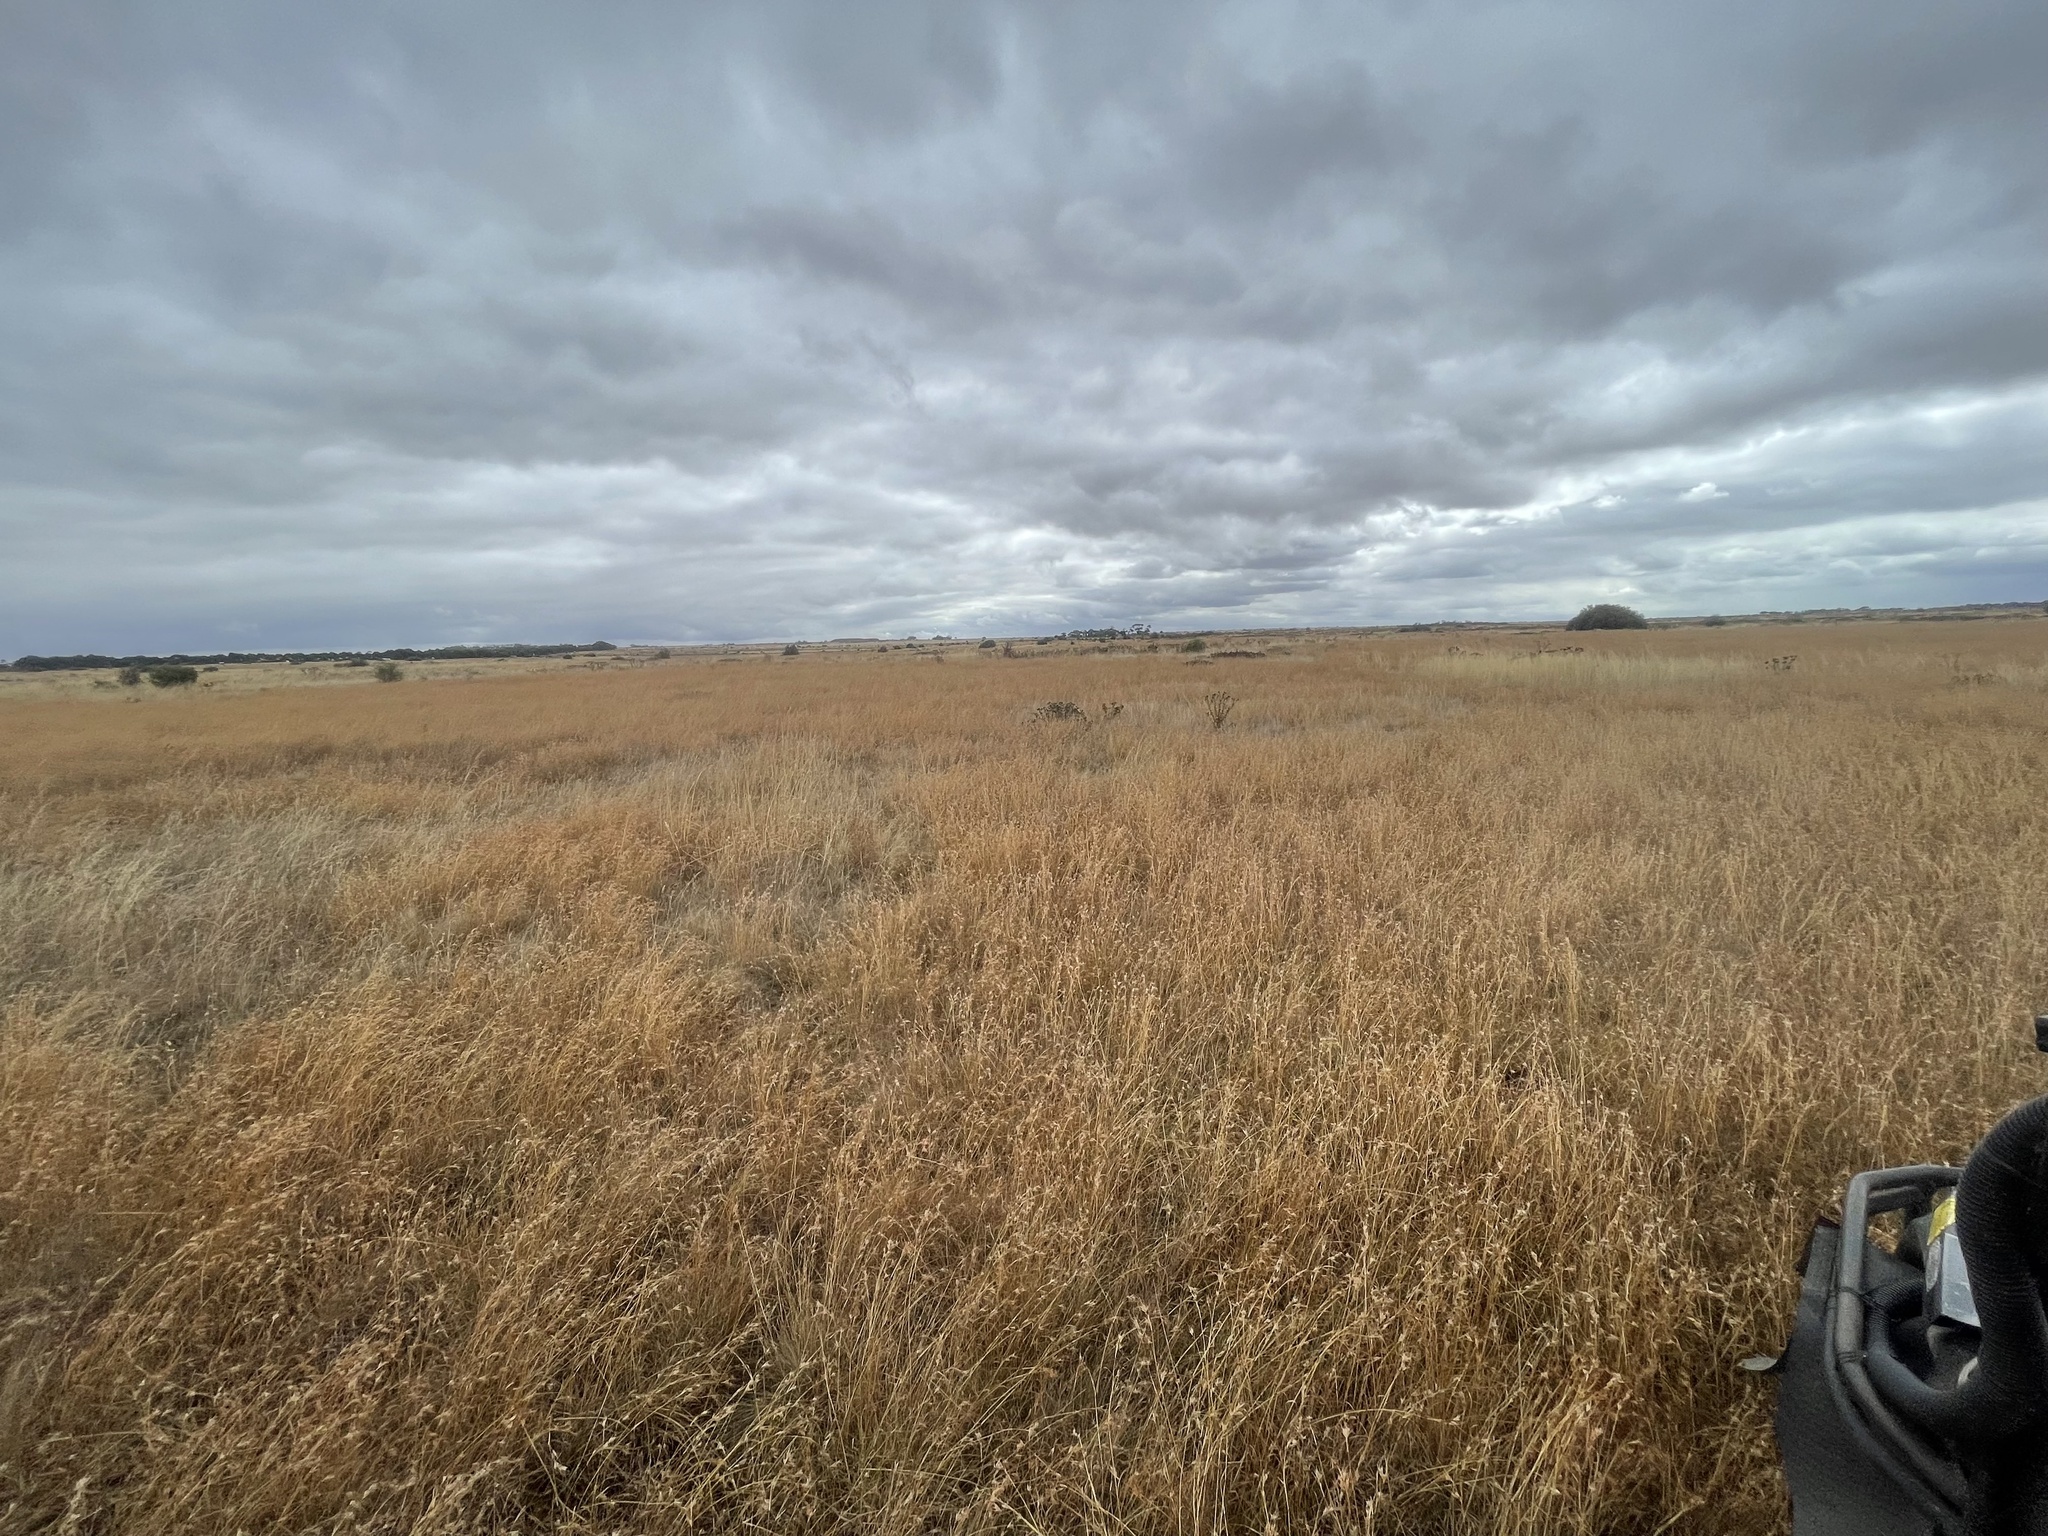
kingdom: Plantae
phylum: Tracheophyta
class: Liliopsida
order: Poales
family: Poaceae
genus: Themeda
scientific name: Themeda triandra
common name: Kangaroo grass
